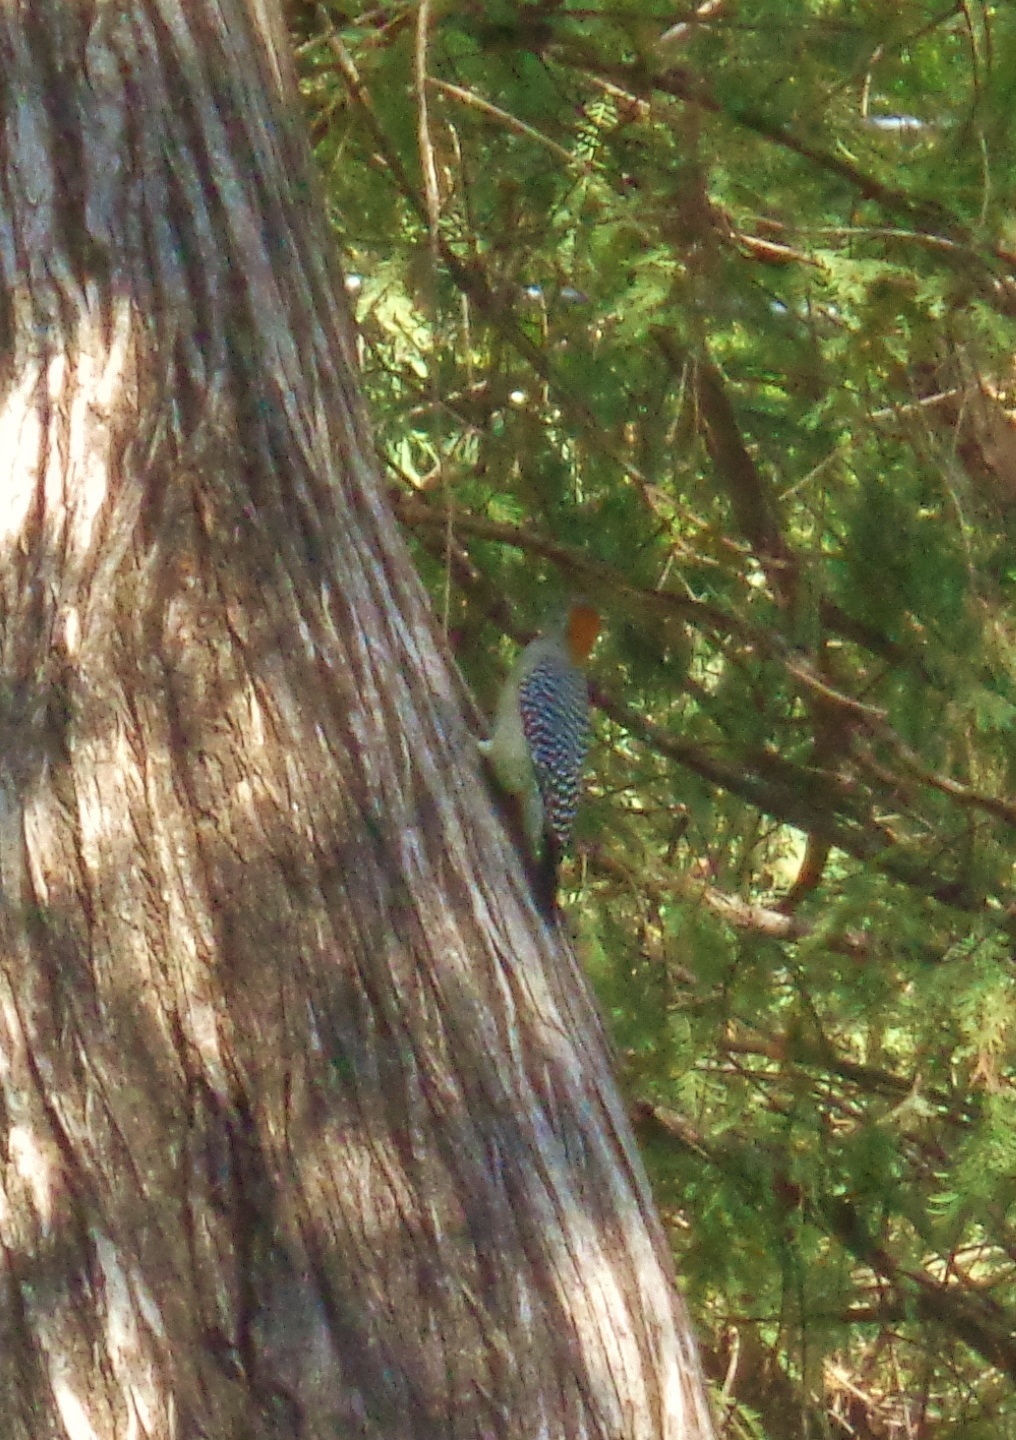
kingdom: Animalia
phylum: Chordata
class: Aves
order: Piciformes
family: Picidae
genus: Melanerpes
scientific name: Melanerpes aurifrons
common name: Golden-fronted woodpecker
